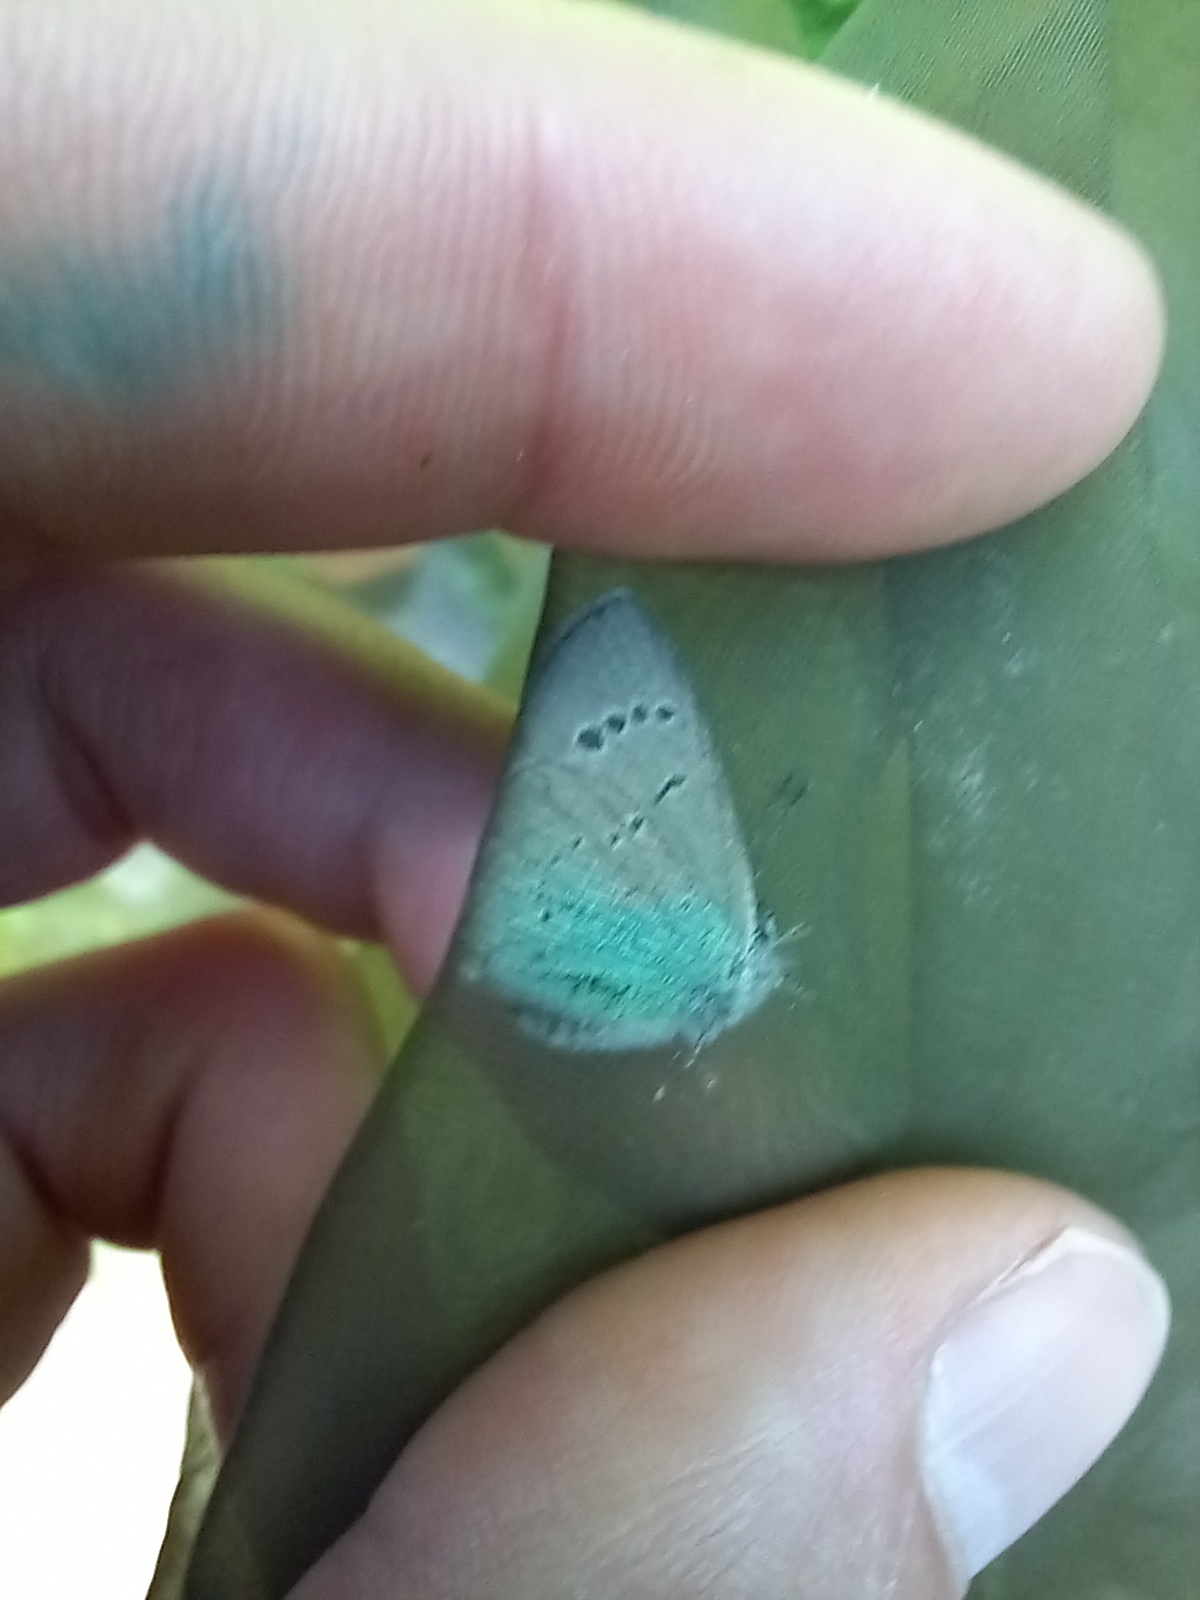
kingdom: Animalia
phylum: Arthropoda
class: Insecta
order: Lepidoptera
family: Lycaenidae
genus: Glaucopsyche
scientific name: Glaucopsyche alexis
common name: Green-underside blue
